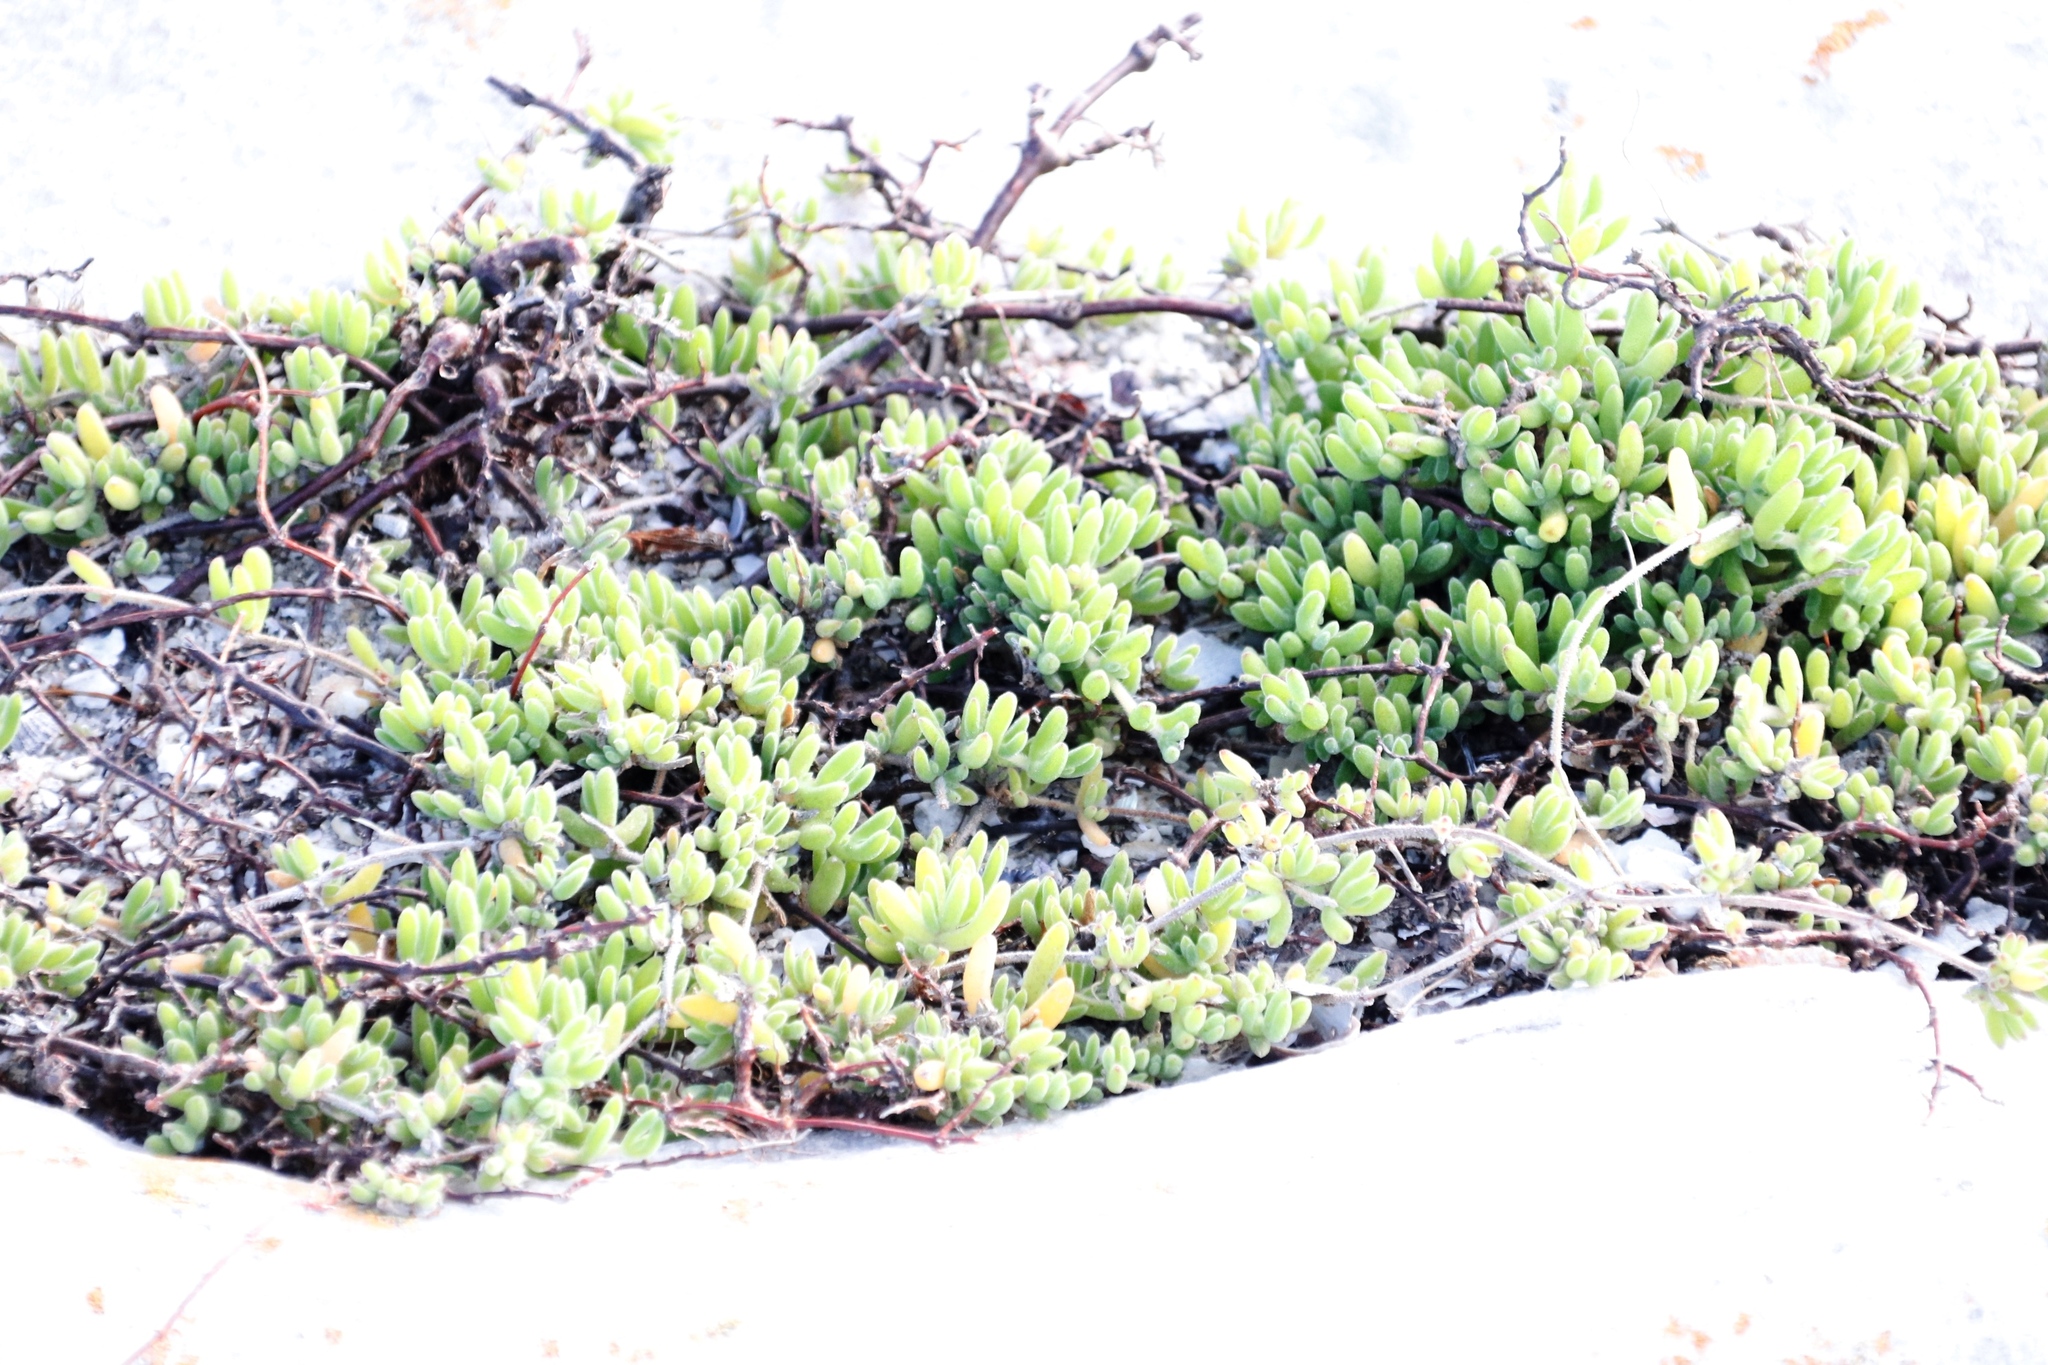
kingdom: Plantae
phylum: Tracheophyta
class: Magnoliopsida
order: Caryophyllales
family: Aizoaceae
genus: Drosanthemum
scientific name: Drosanthemum candens
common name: Rodondo-creeper
